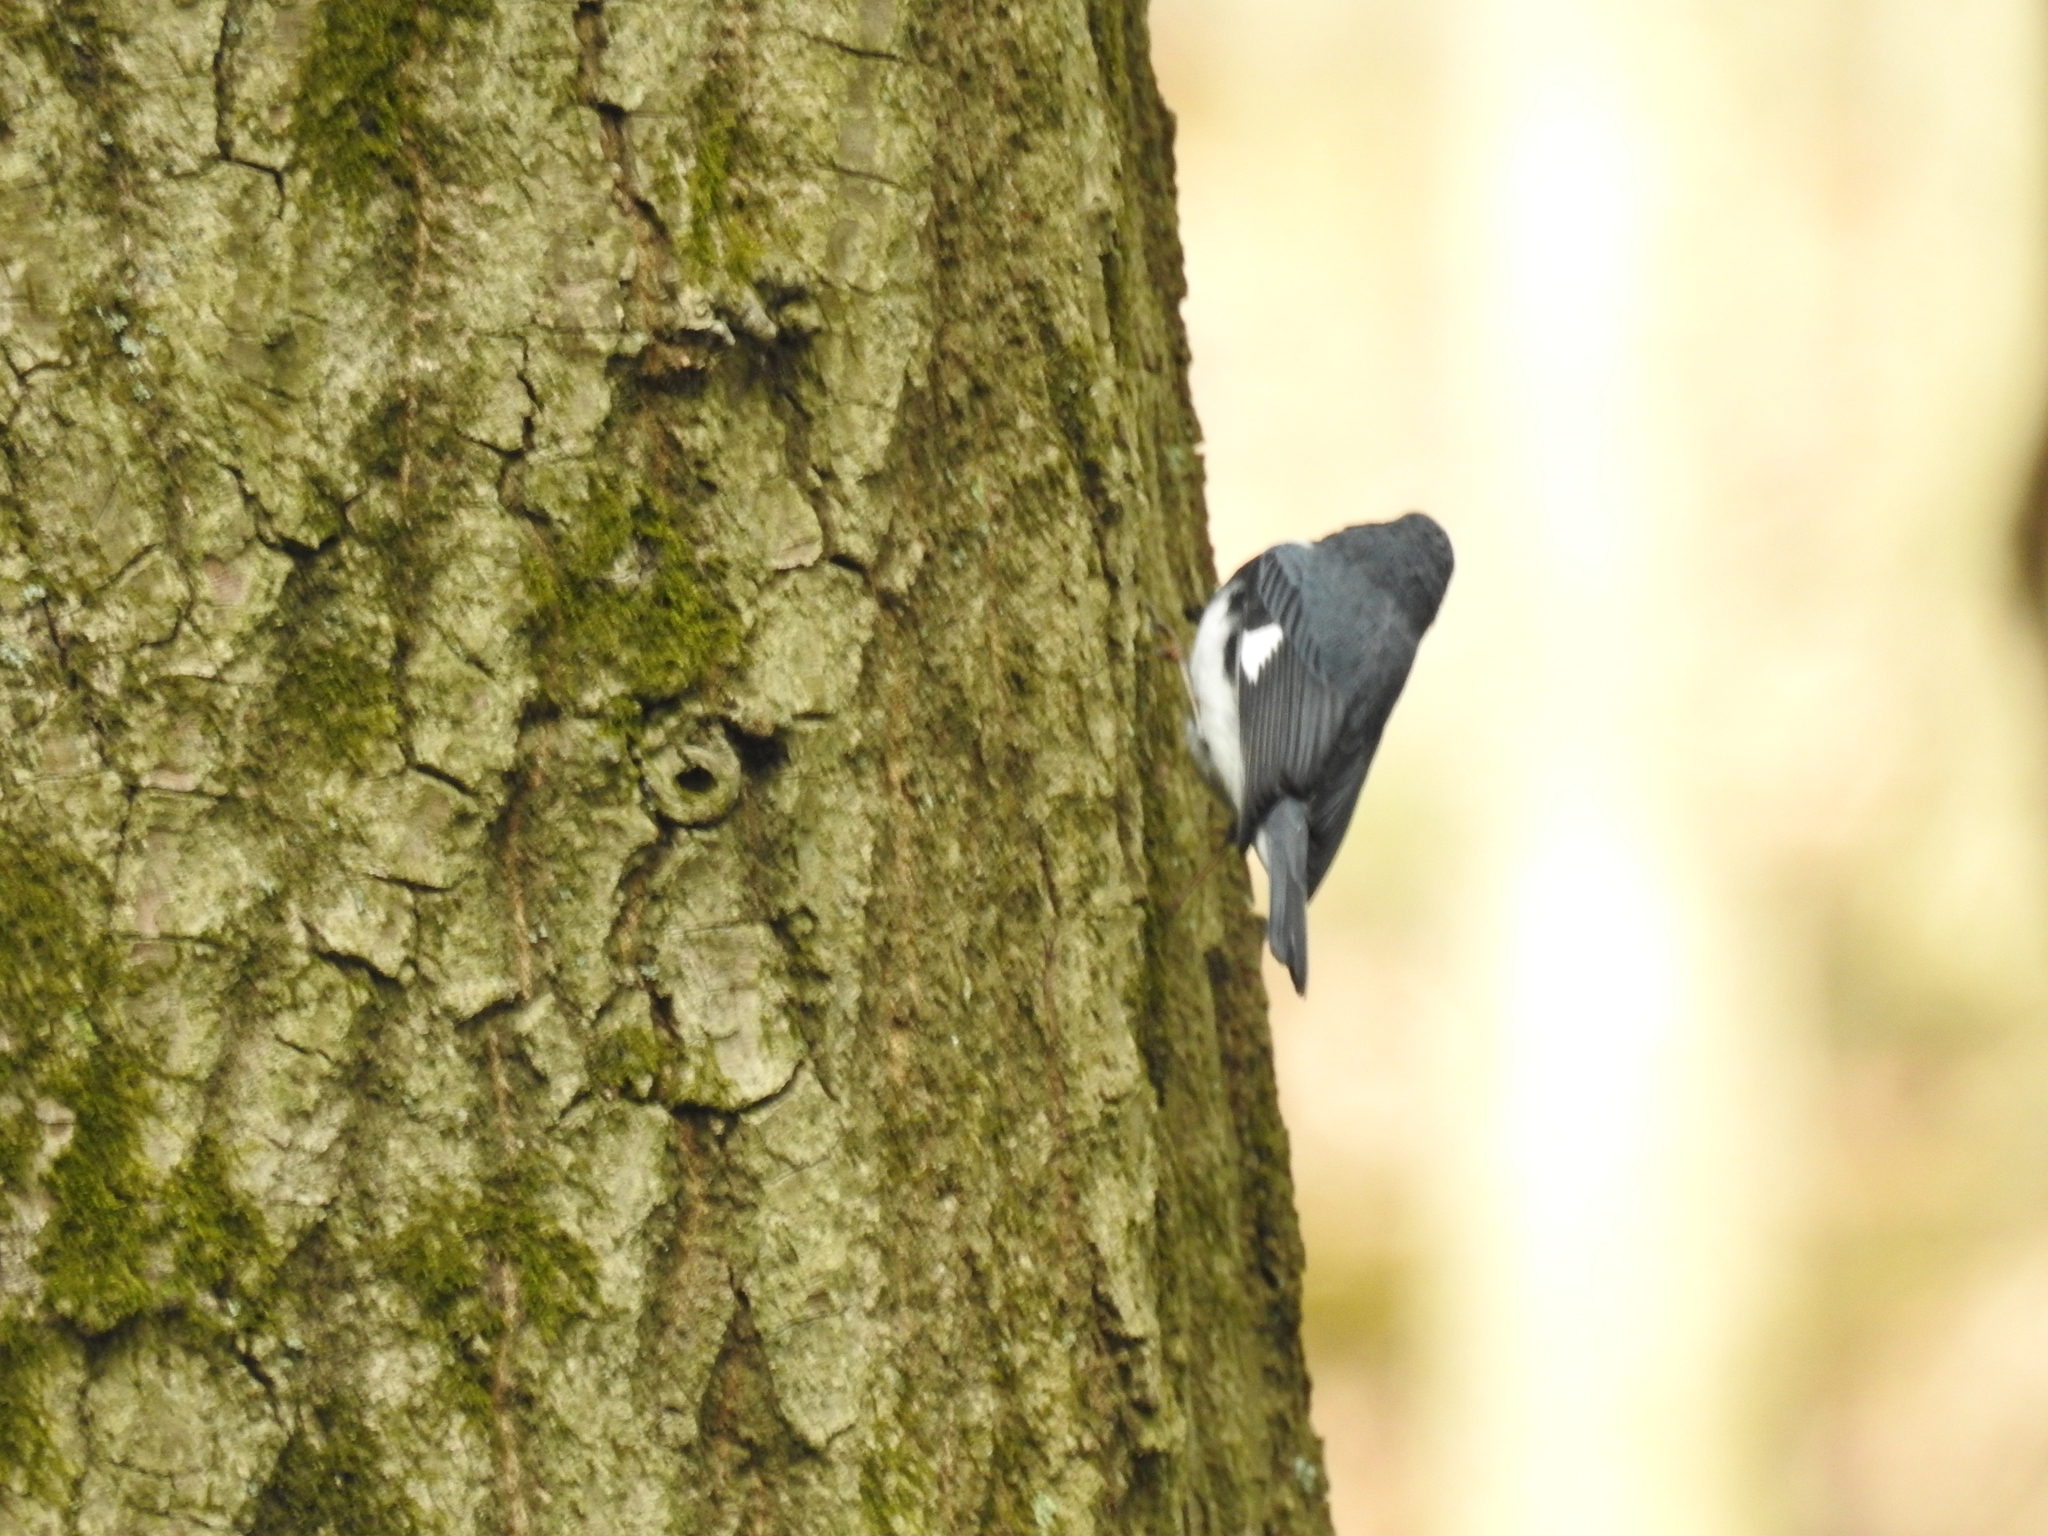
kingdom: Animalia
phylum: Chordata
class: Aves
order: Passeriformes
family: Parulidae
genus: Setophaga
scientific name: Setophaga caerulescens
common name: Black-throated blue warbler
